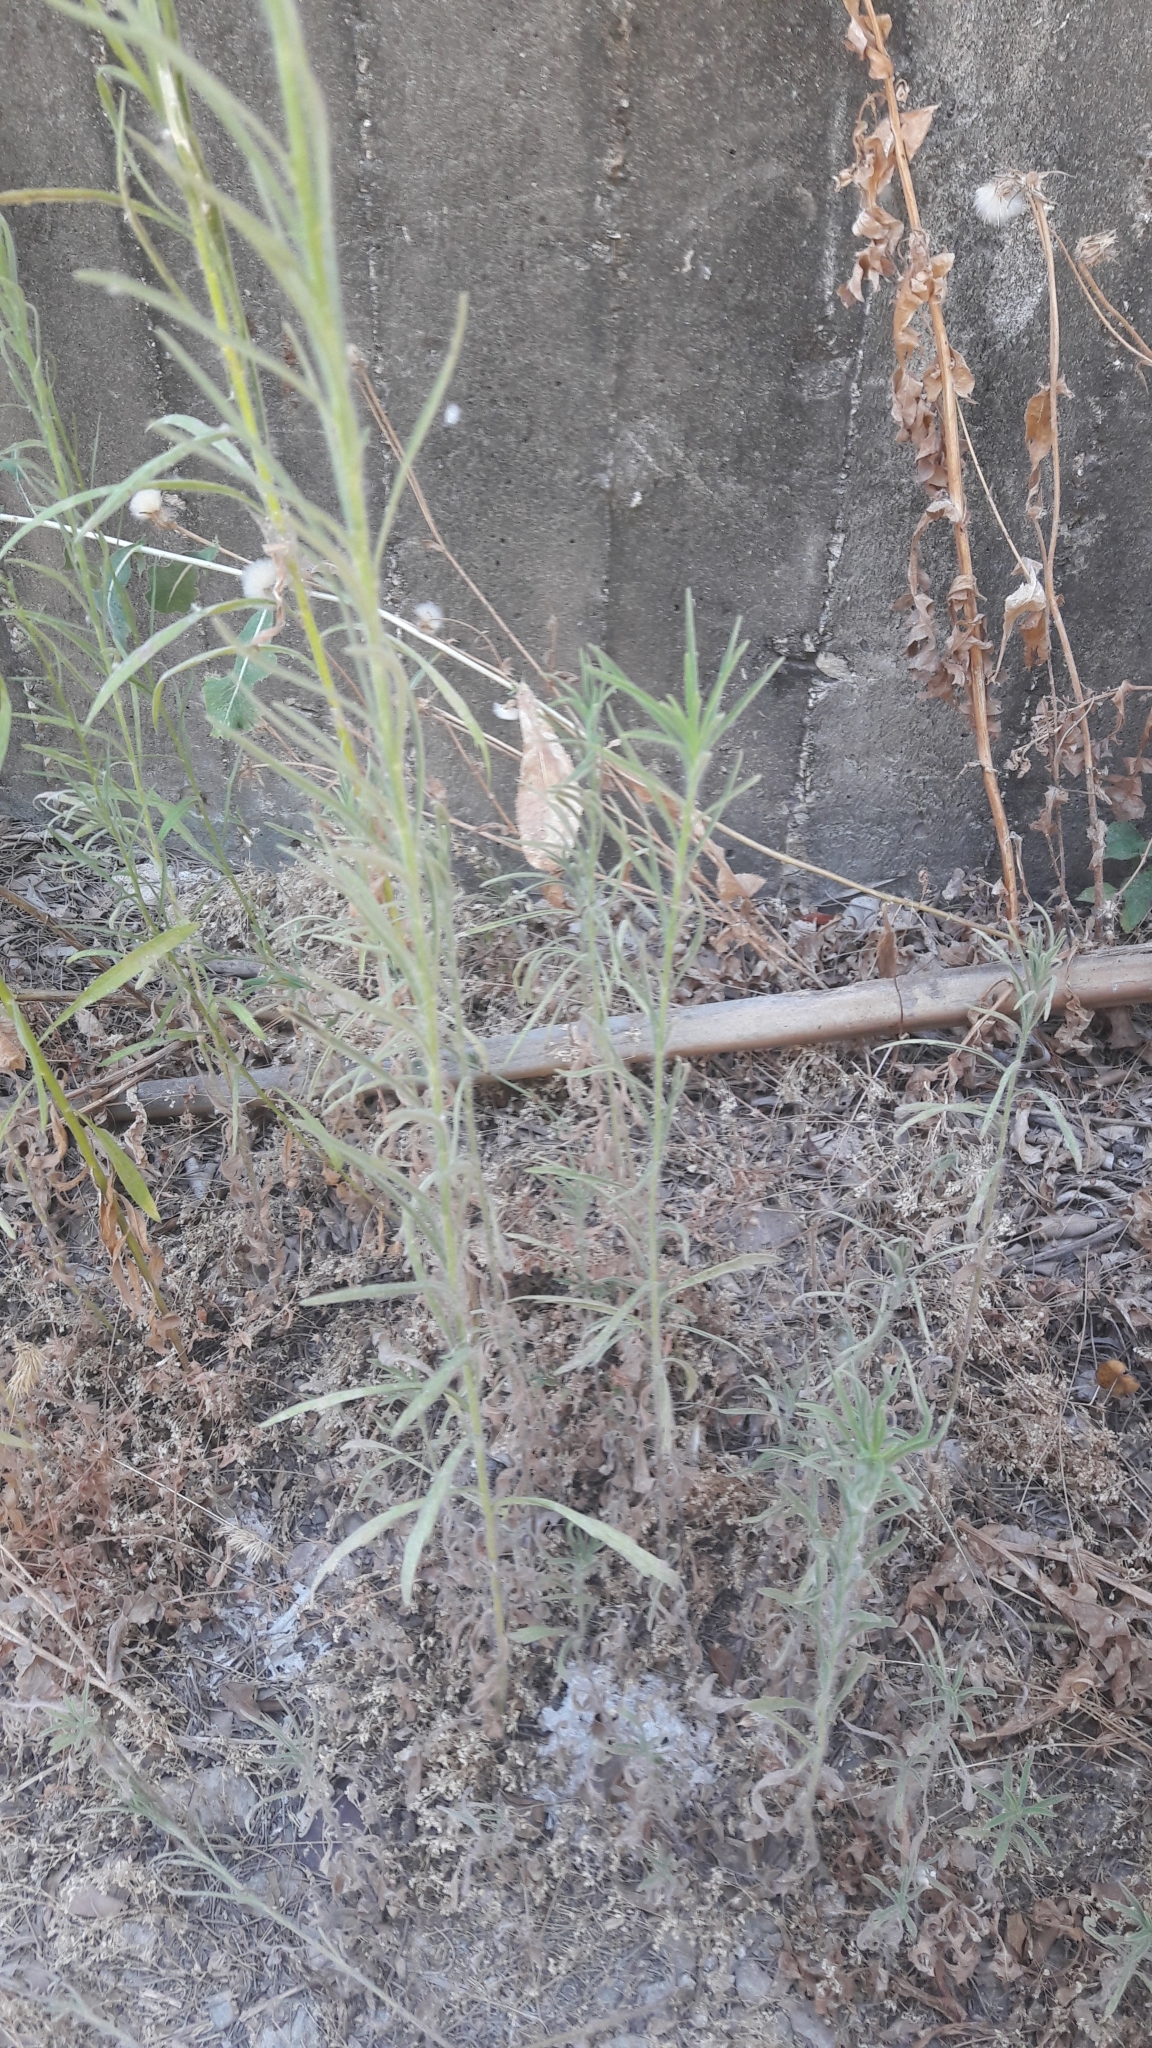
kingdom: Plantae
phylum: Tracheophyta
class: Magnoliopsida
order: Asterales
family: Asteraceae
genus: Erigeron
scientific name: Erigeron canadensis
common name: Canadian fleabane
